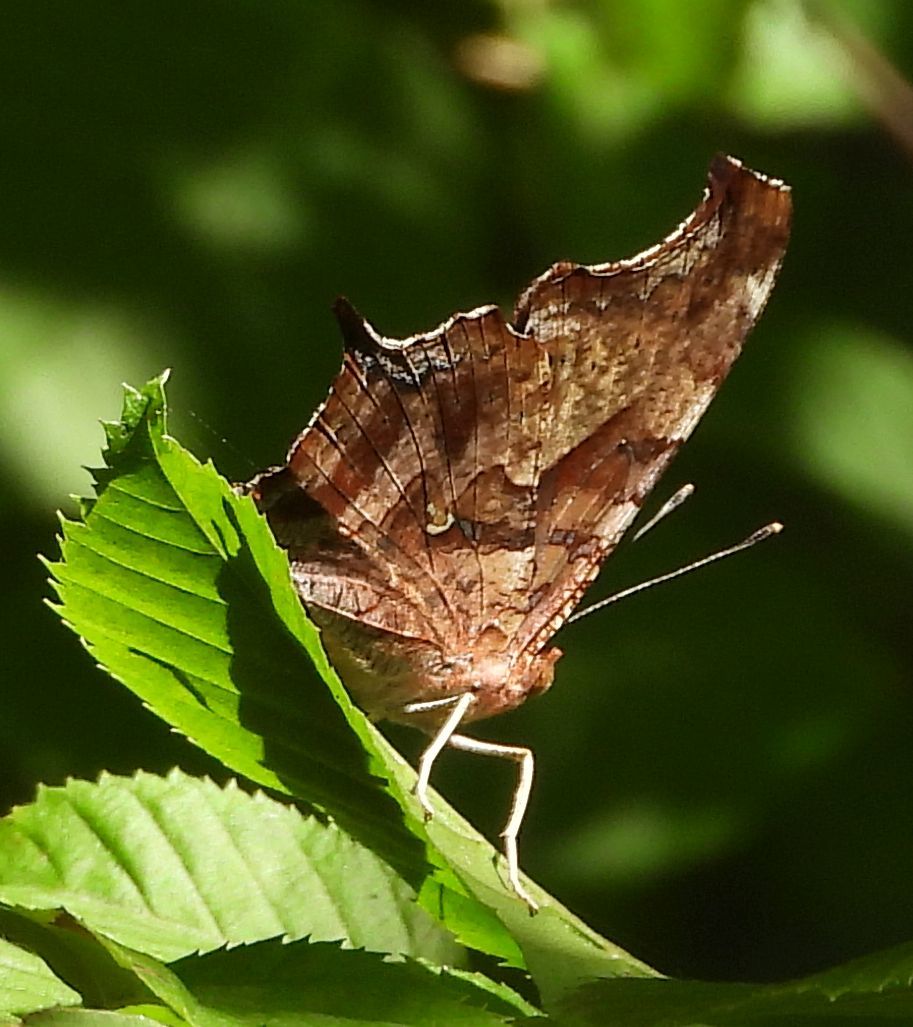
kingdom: Animalia
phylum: Arthropoda
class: Insecta
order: Lepidoptera
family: Nymphalidae
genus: Polygonia
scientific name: Polygonia interrogationis
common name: Question mark
